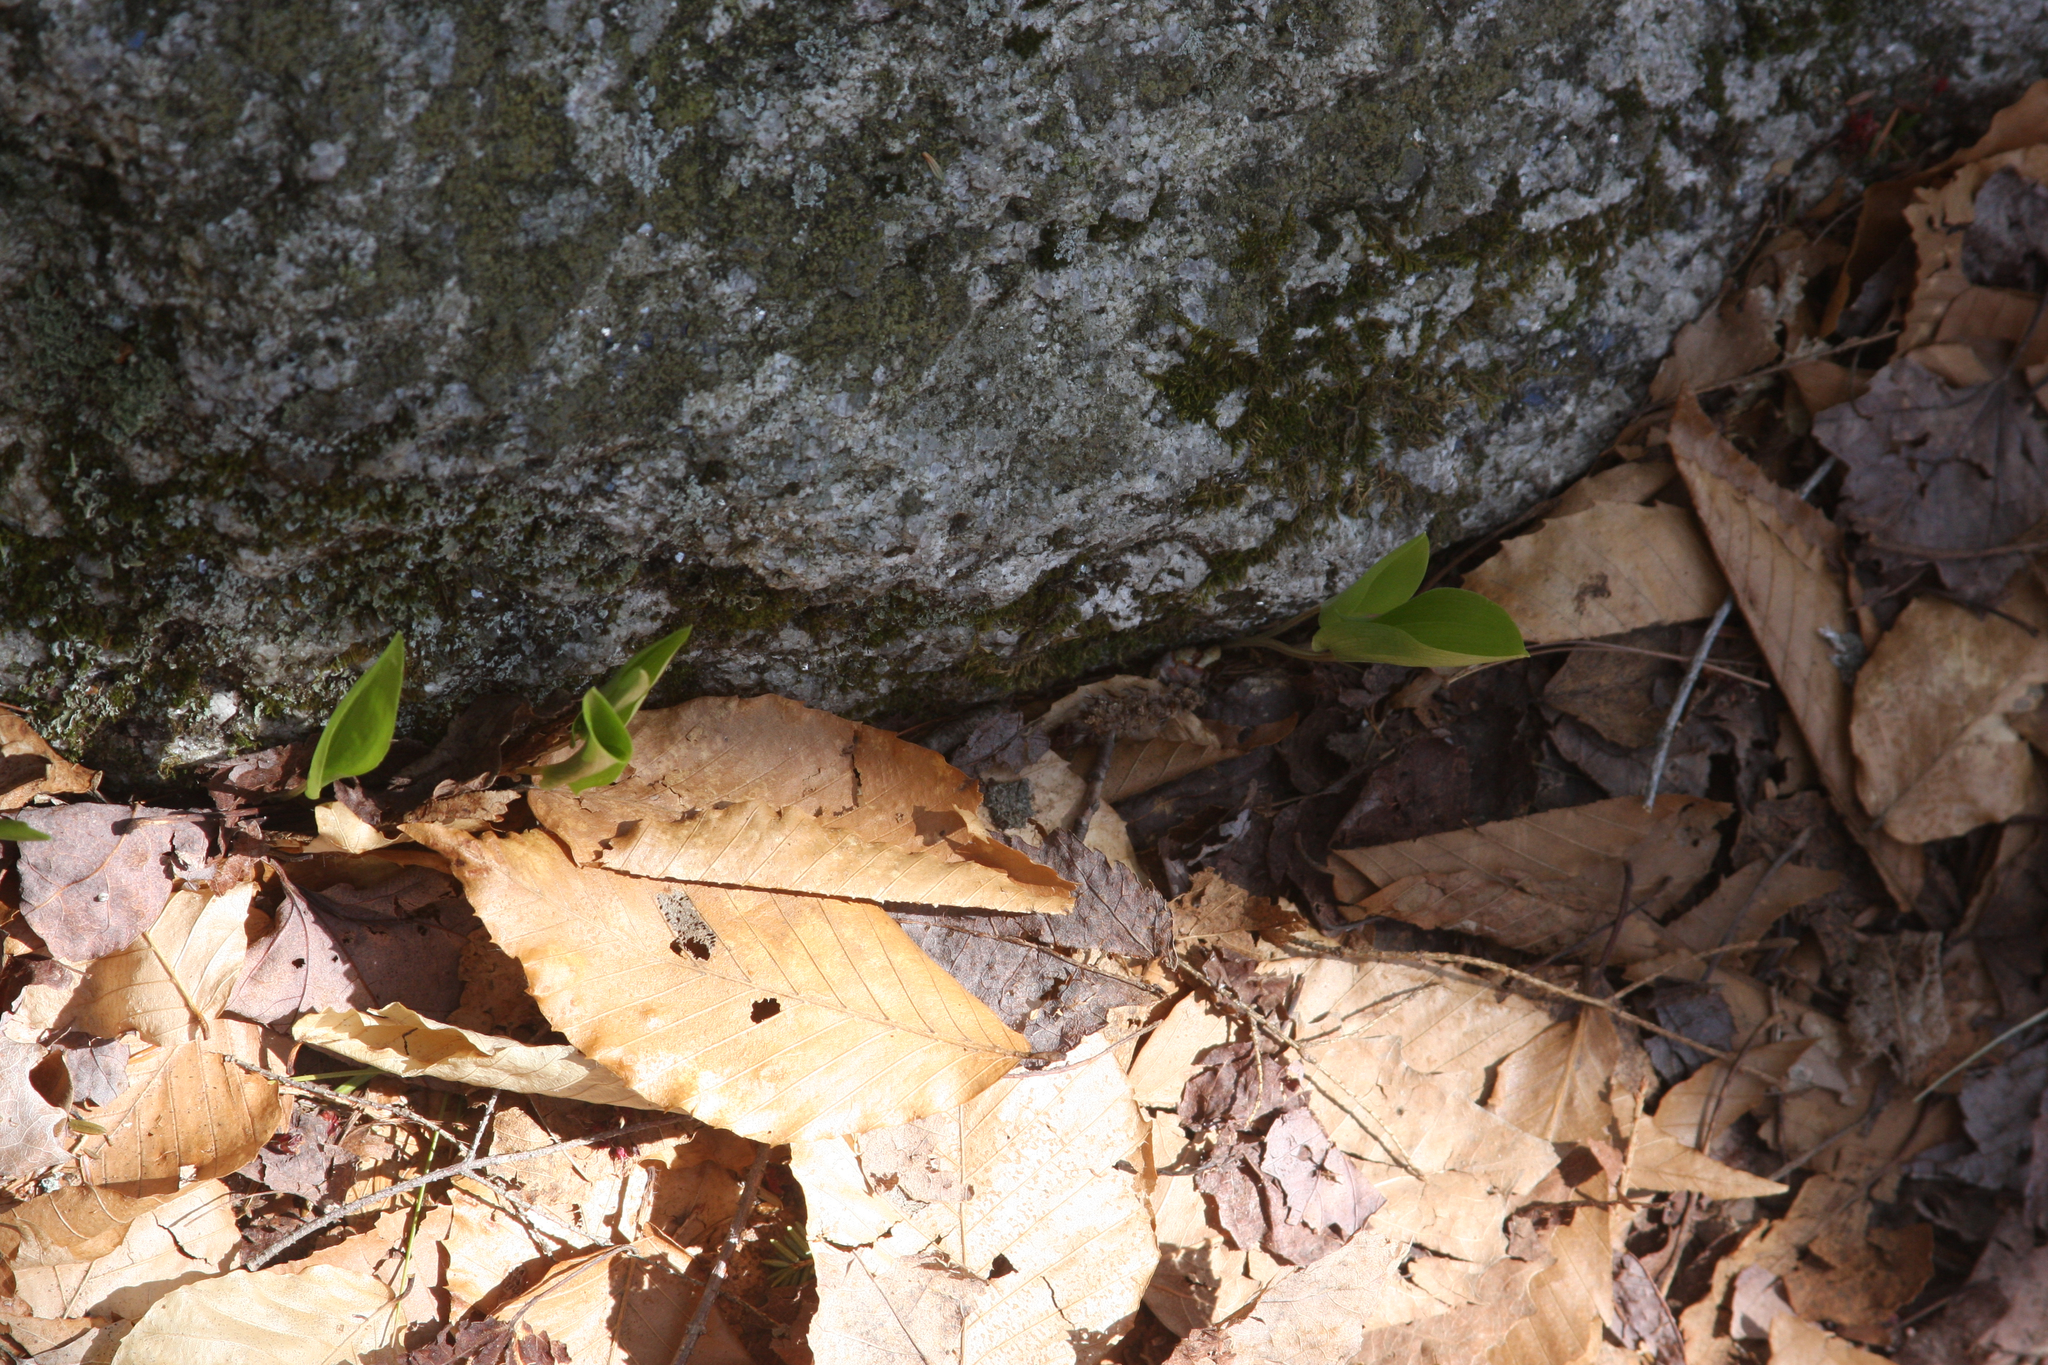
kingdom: Plantae
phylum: Tracheophyta
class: Liliopsida
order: Asparagales
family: Asparagaceae
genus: Maianthemum
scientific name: Maianthemum canadense
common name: False lily-of-the-valley
